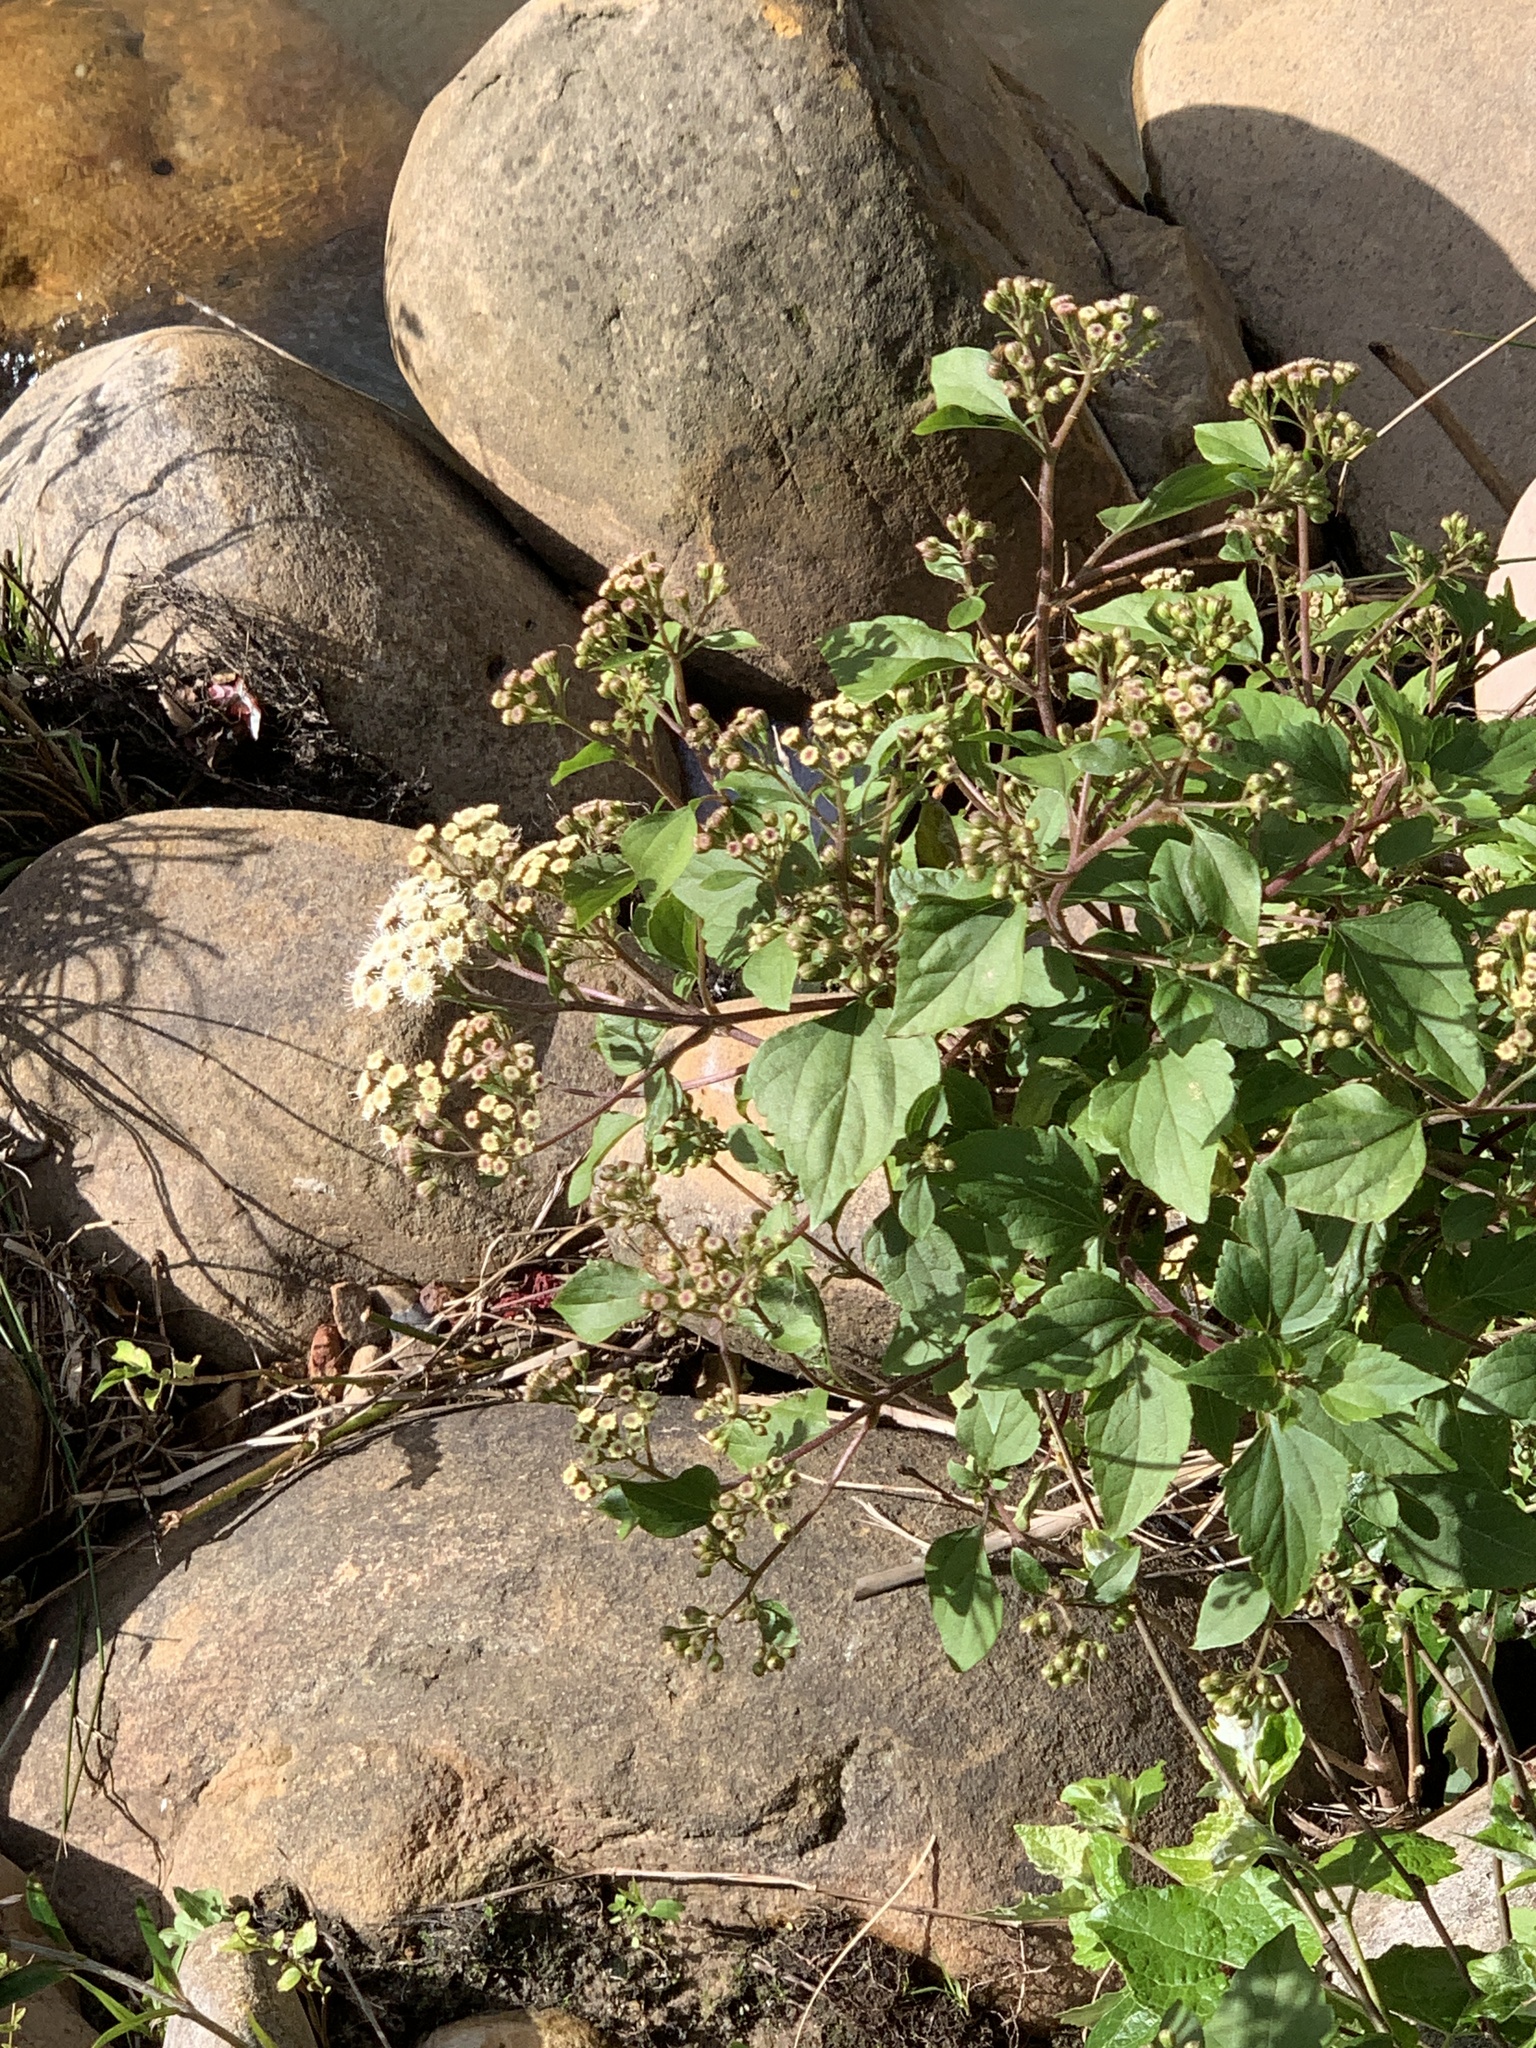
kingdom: Plantae
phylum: Tracheophyta
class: Magnoliopsida
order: Asterales
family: Asteraceae
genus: Ageratina
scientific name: Ageratina adenophora
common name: Sticky snakeroot
